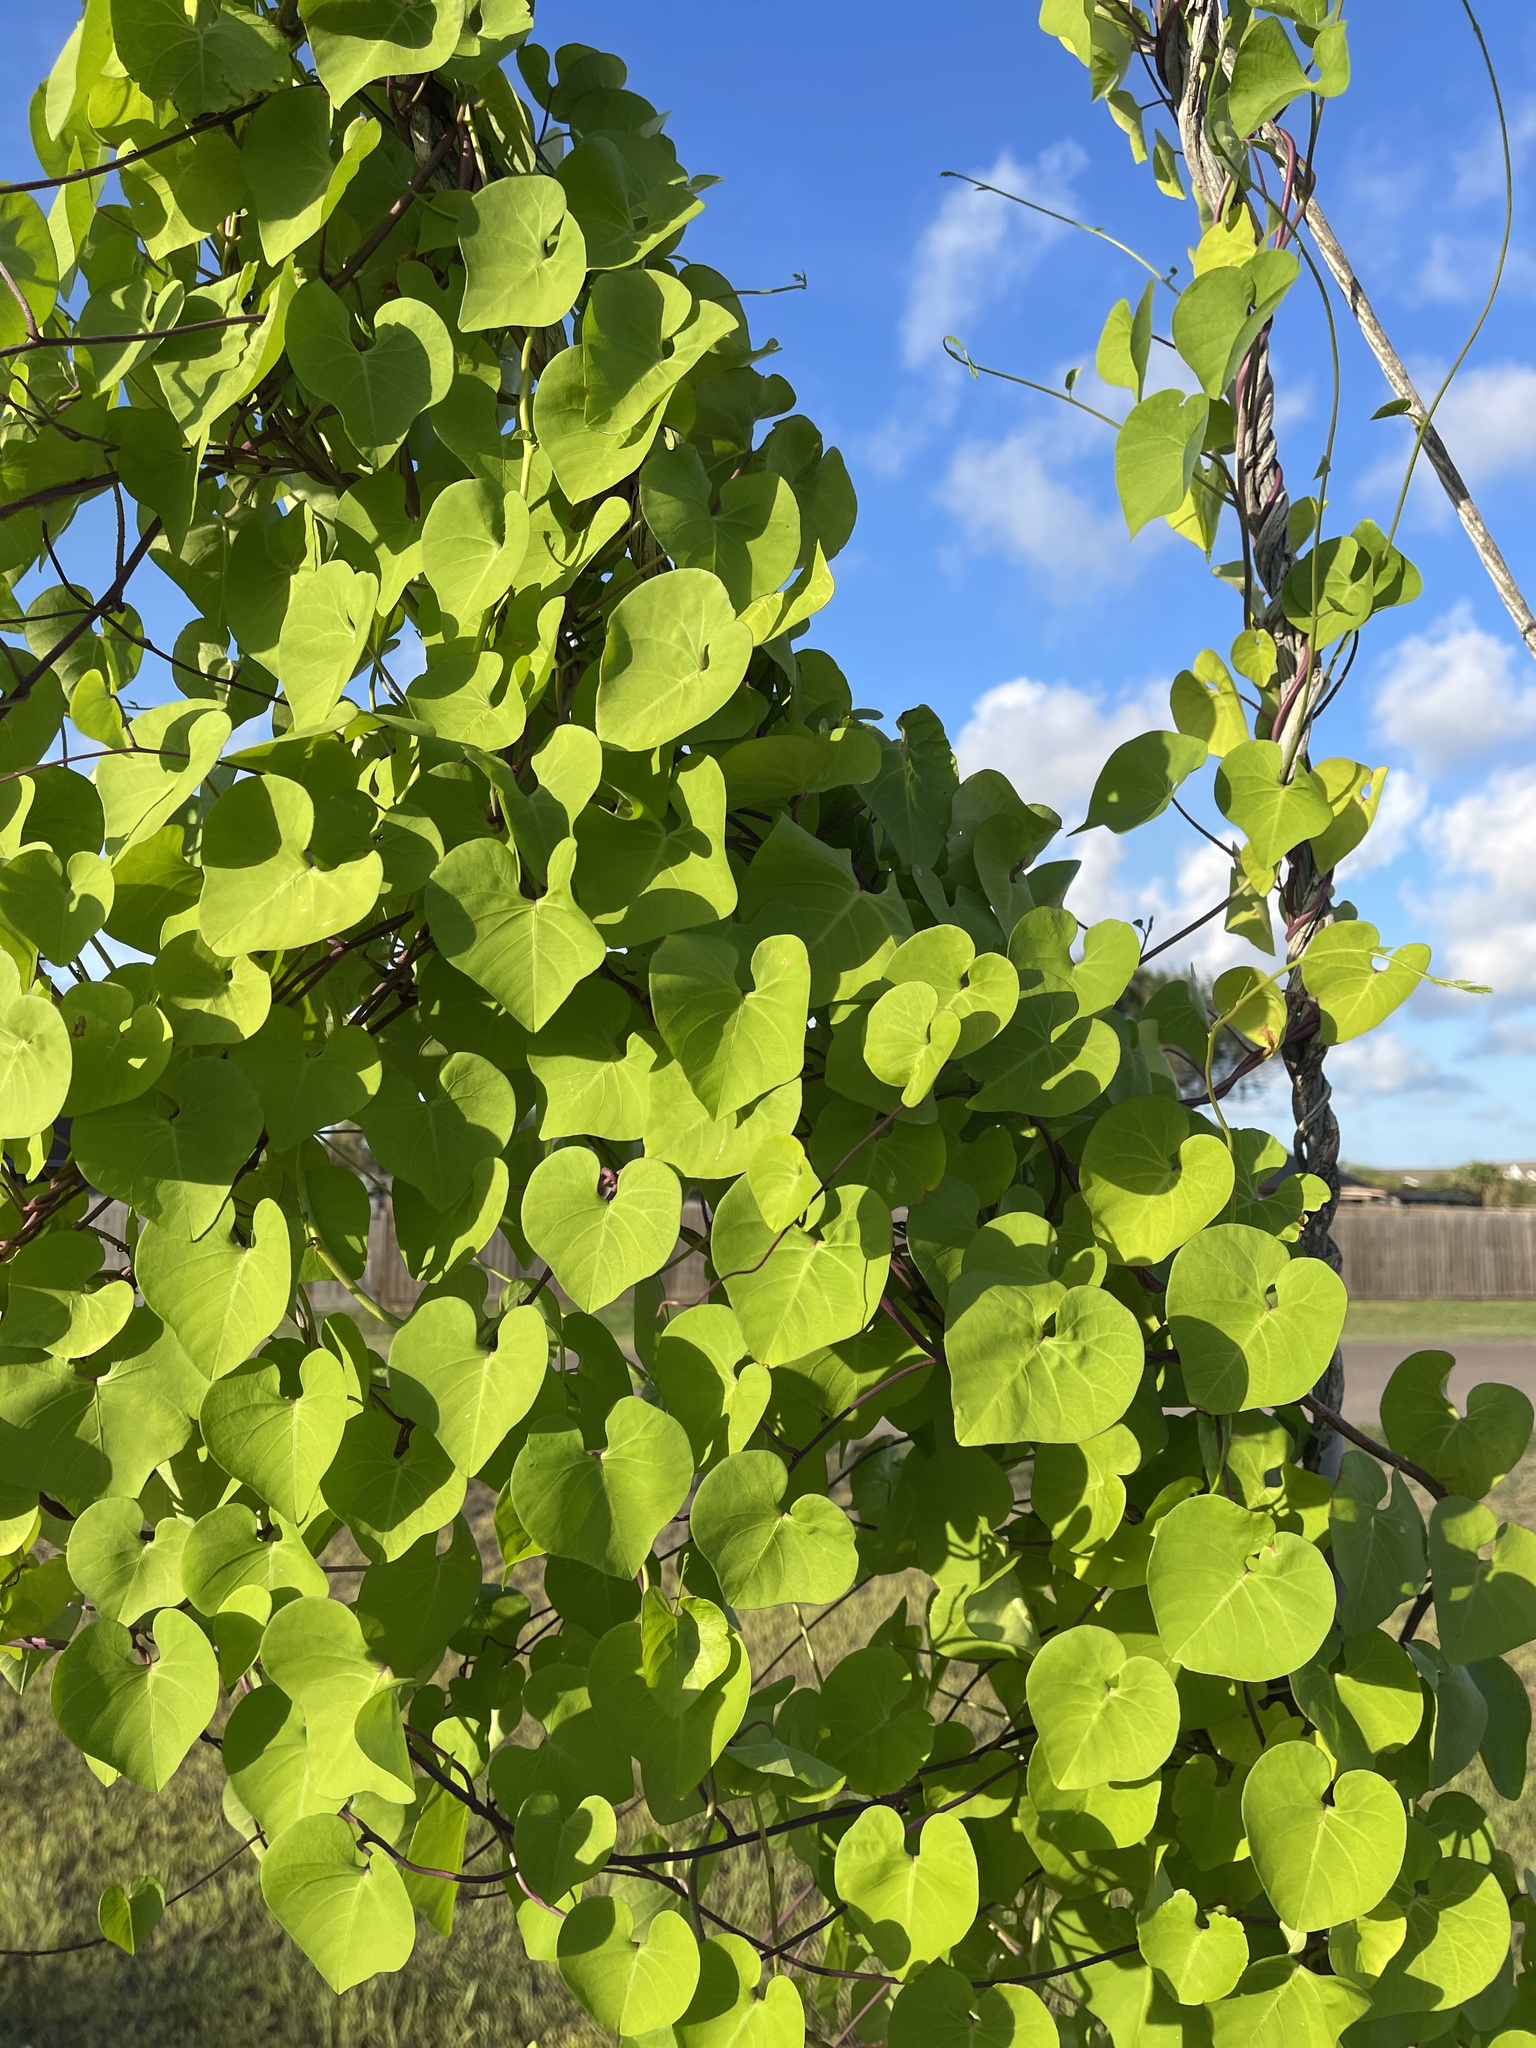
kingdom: Plantae
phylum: Tracheophyta
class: Magnoliopsida
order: Solanales
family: Convolvulaceae
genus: Ipomoea
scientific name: Ipomoea amnicola
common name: Redcenter morning-glory
